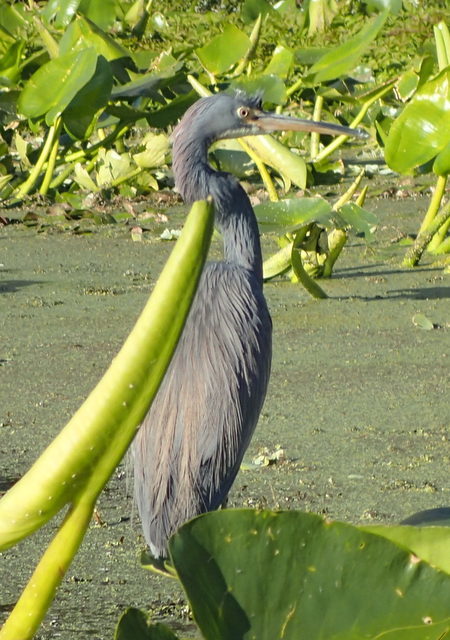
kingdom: Animalia
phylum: Chordata
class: Aves
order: Pelecaniformes
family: Ardeidae
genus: Egretta
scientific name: Egretta tricolor
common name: Tricolored heron
